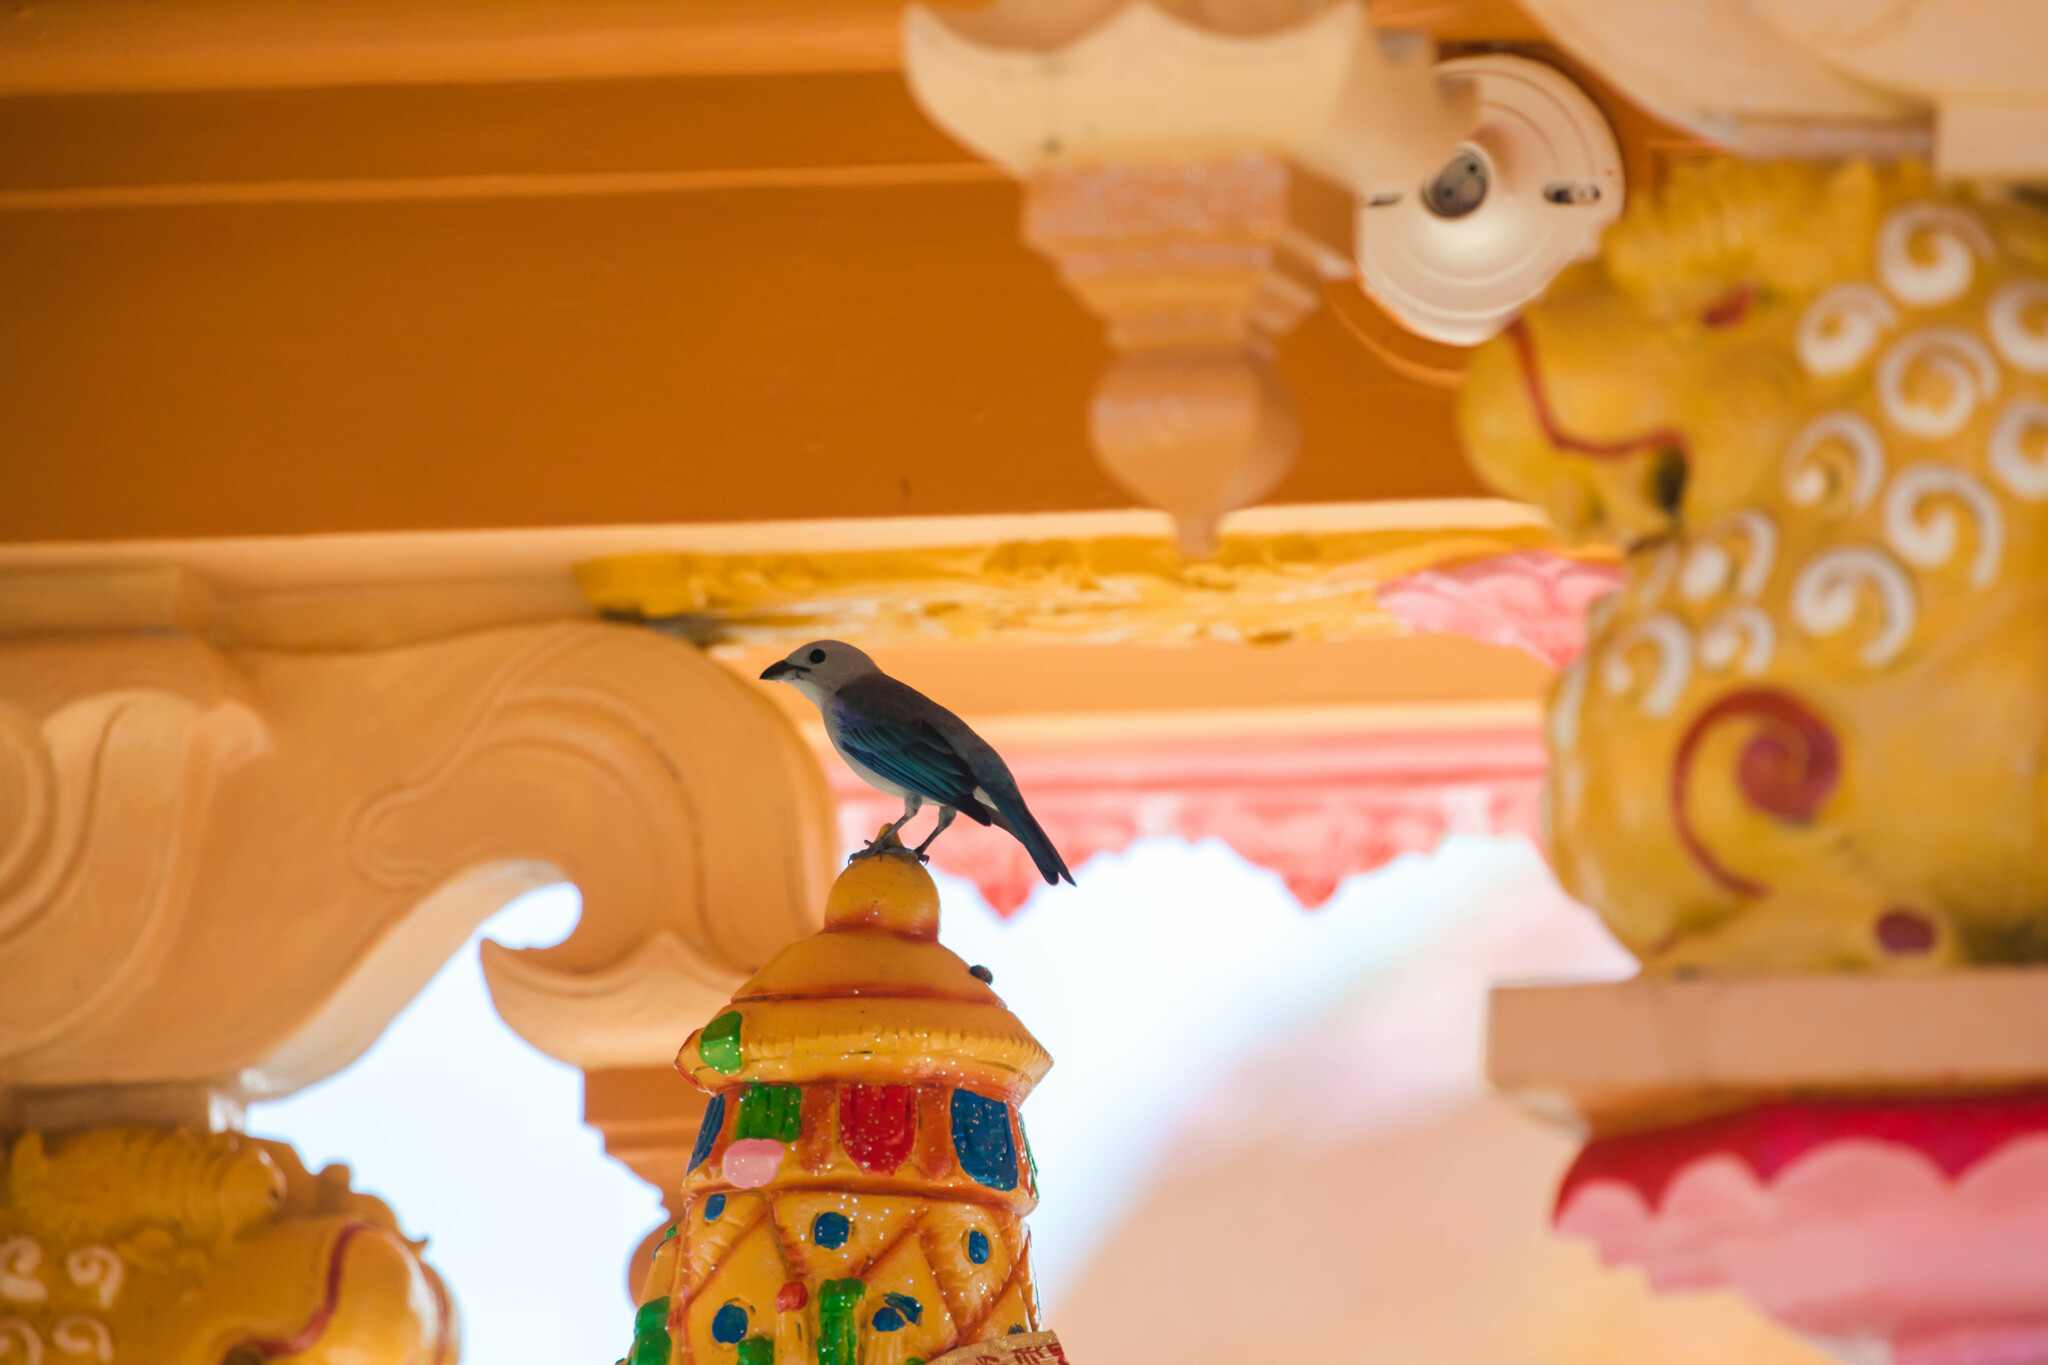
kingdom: Animalia
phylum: Chordata
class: Aves
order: Passeriformes
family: Thraupidae
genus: Thraupis
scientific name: Thraupis episcopus
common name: Blue-grey tanager
